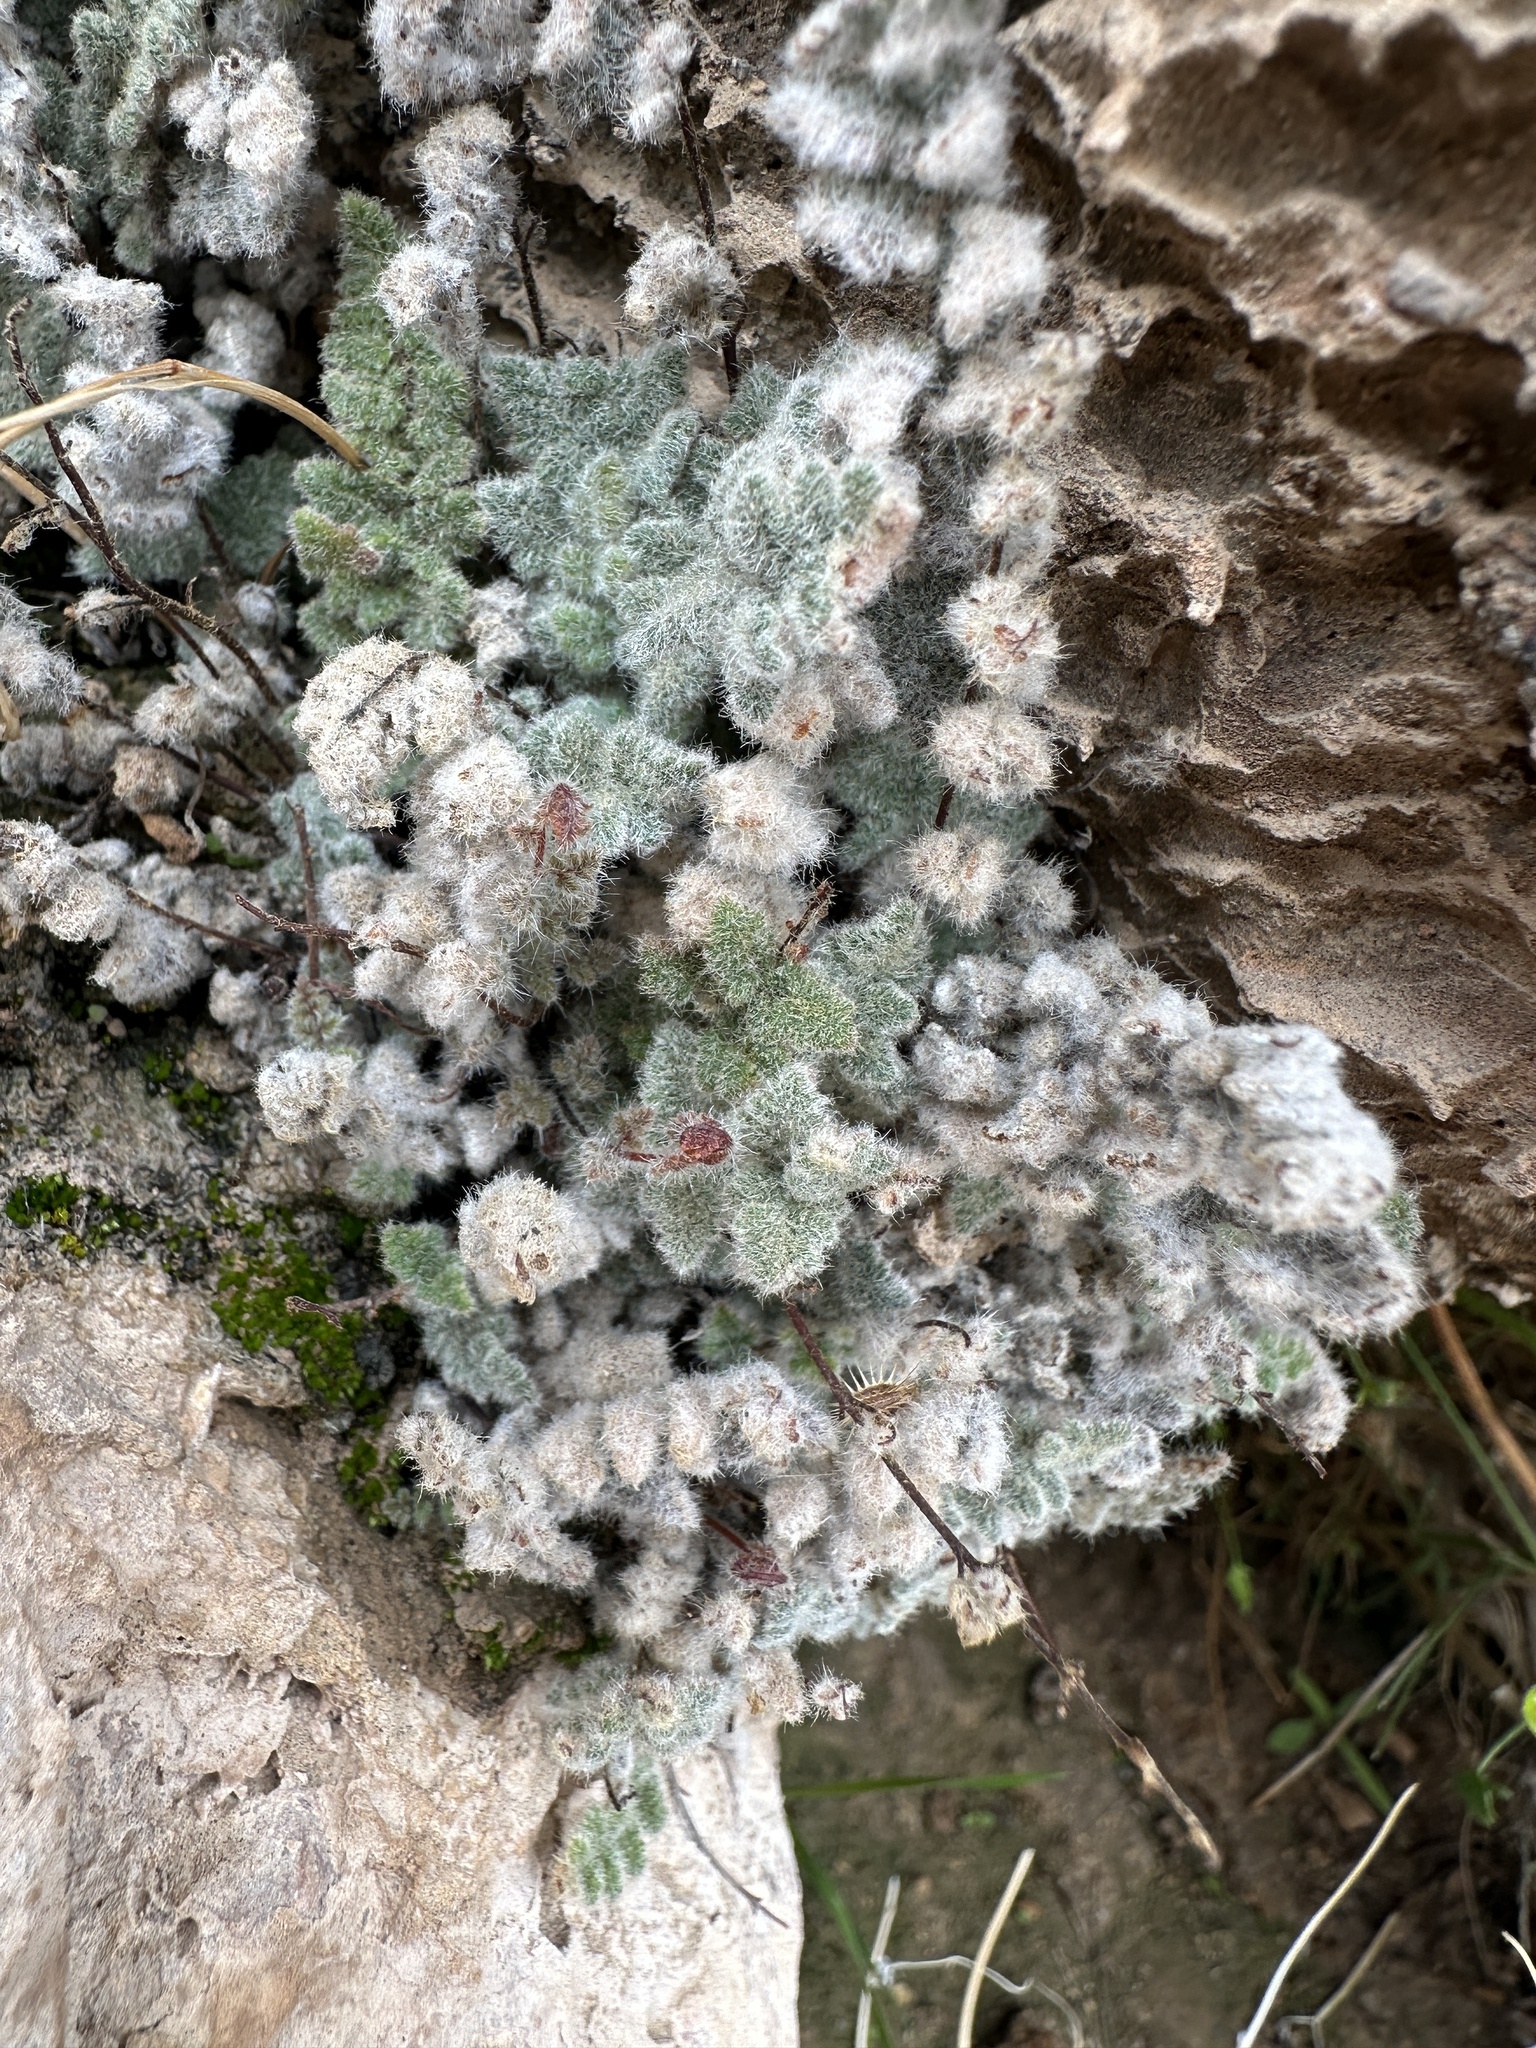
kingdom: Plantae
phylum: Tracheophyta
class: Polypodiopsida
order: Polypodiales
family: Pteridaceae
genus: Myriopteris
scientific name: Myriopteris parryi
